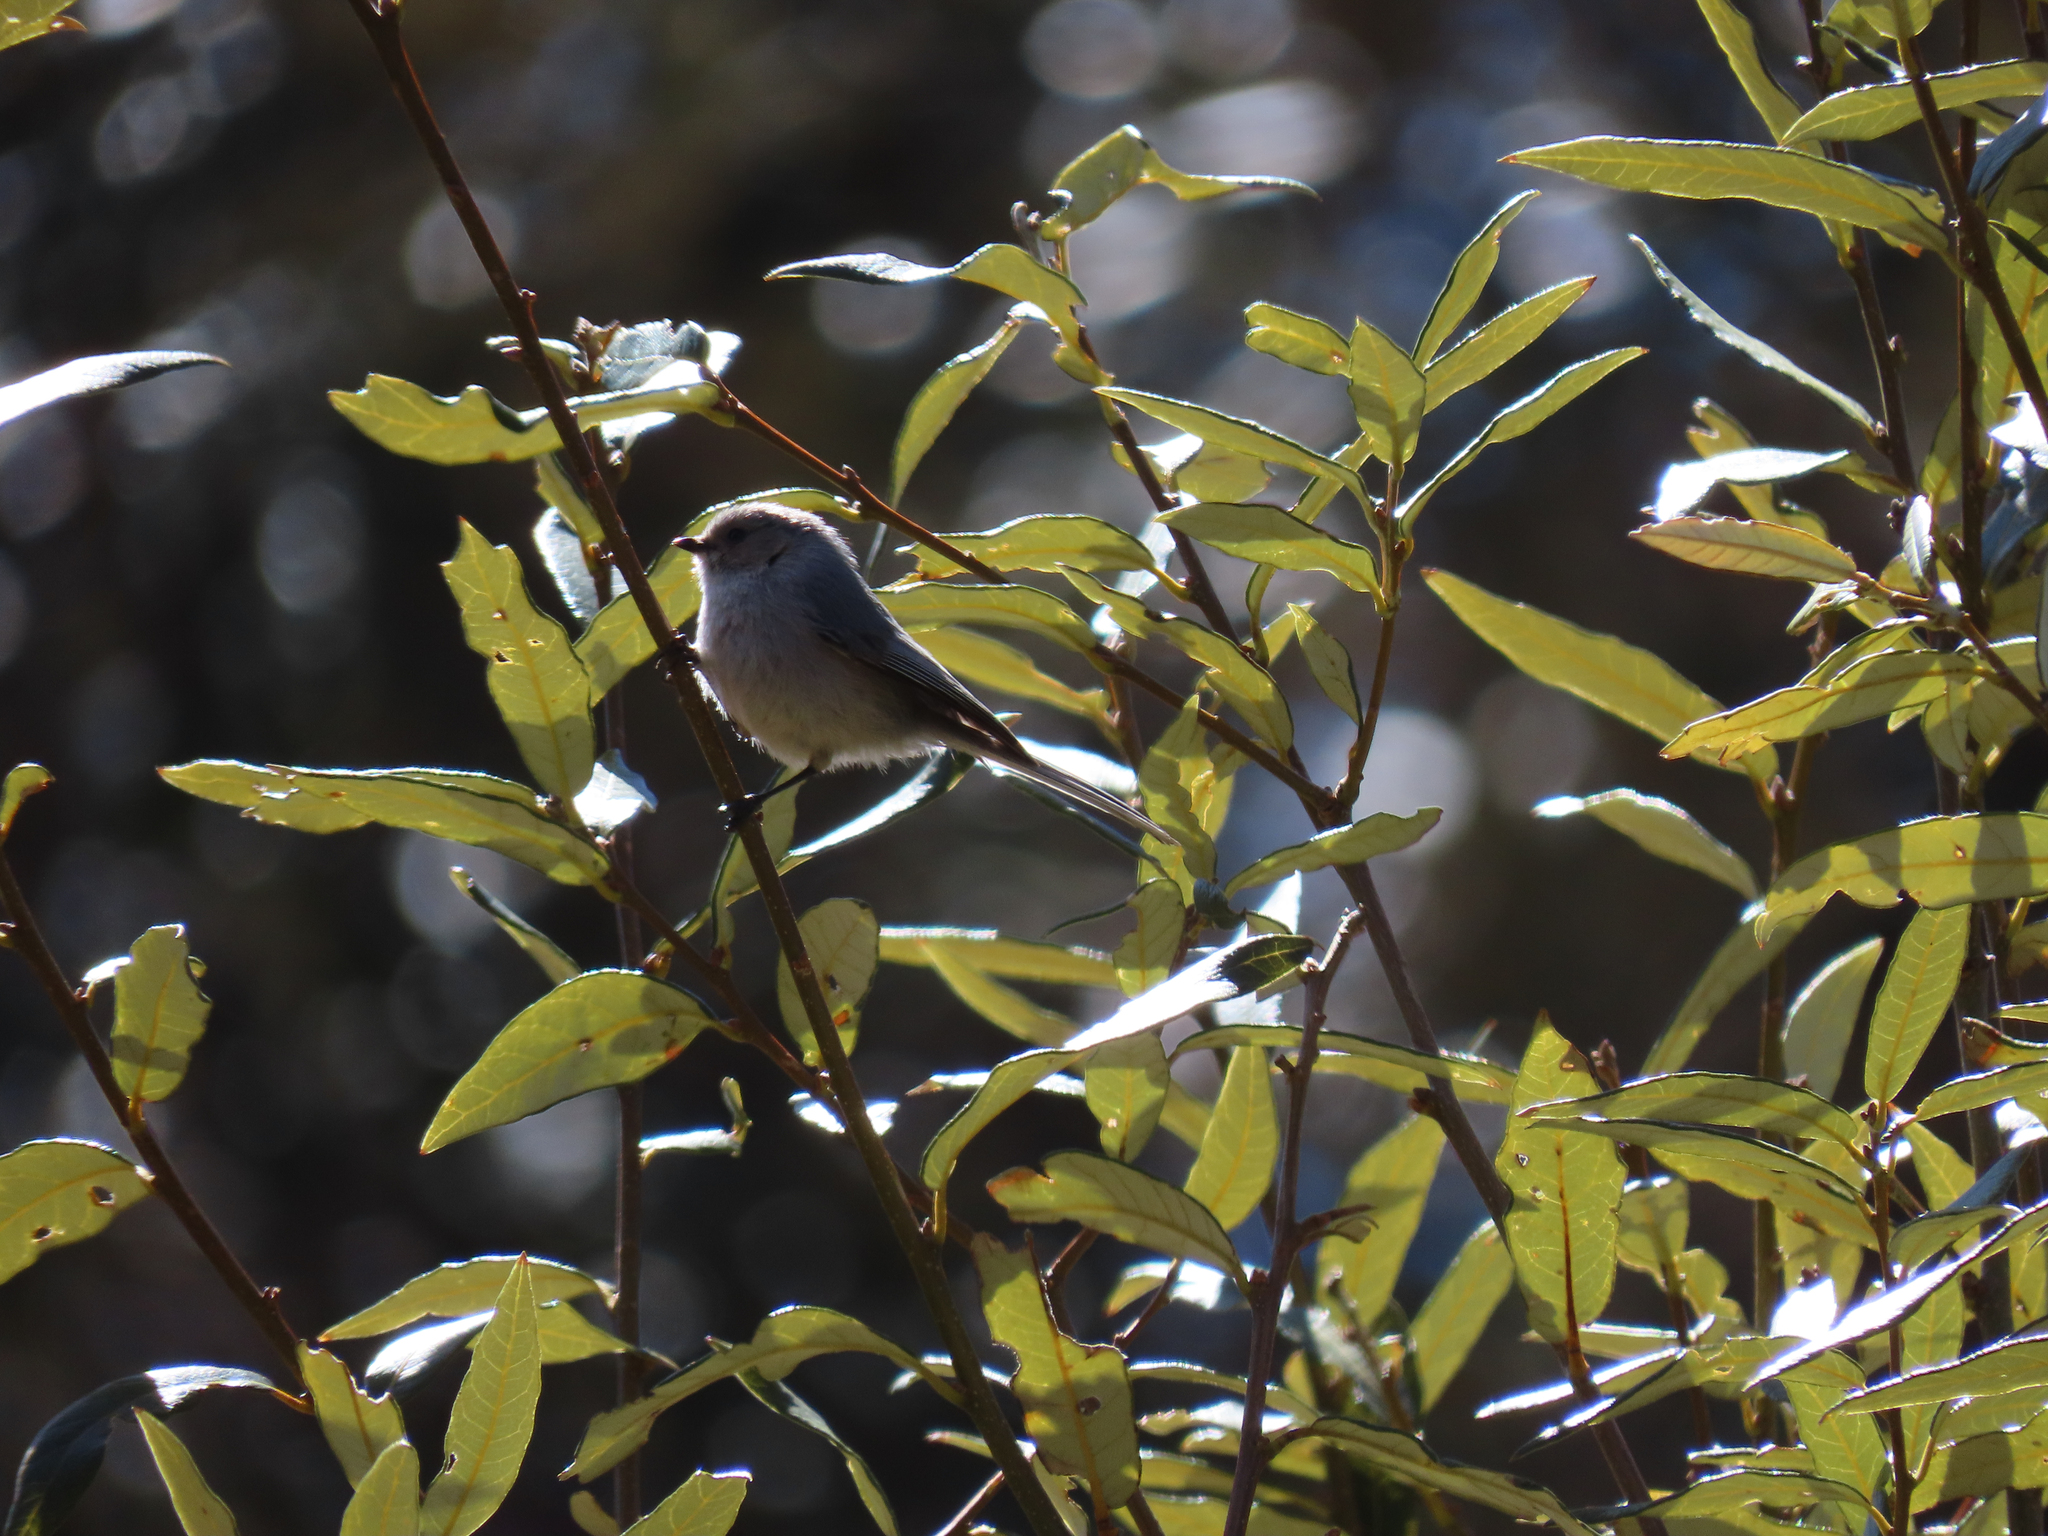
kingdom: Animalia
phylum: Chordata
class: Aves
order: Passeriformes
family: Aegithalidae
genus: Psaltriparus
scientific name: Psaltriparus minimus
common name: American bushtit
